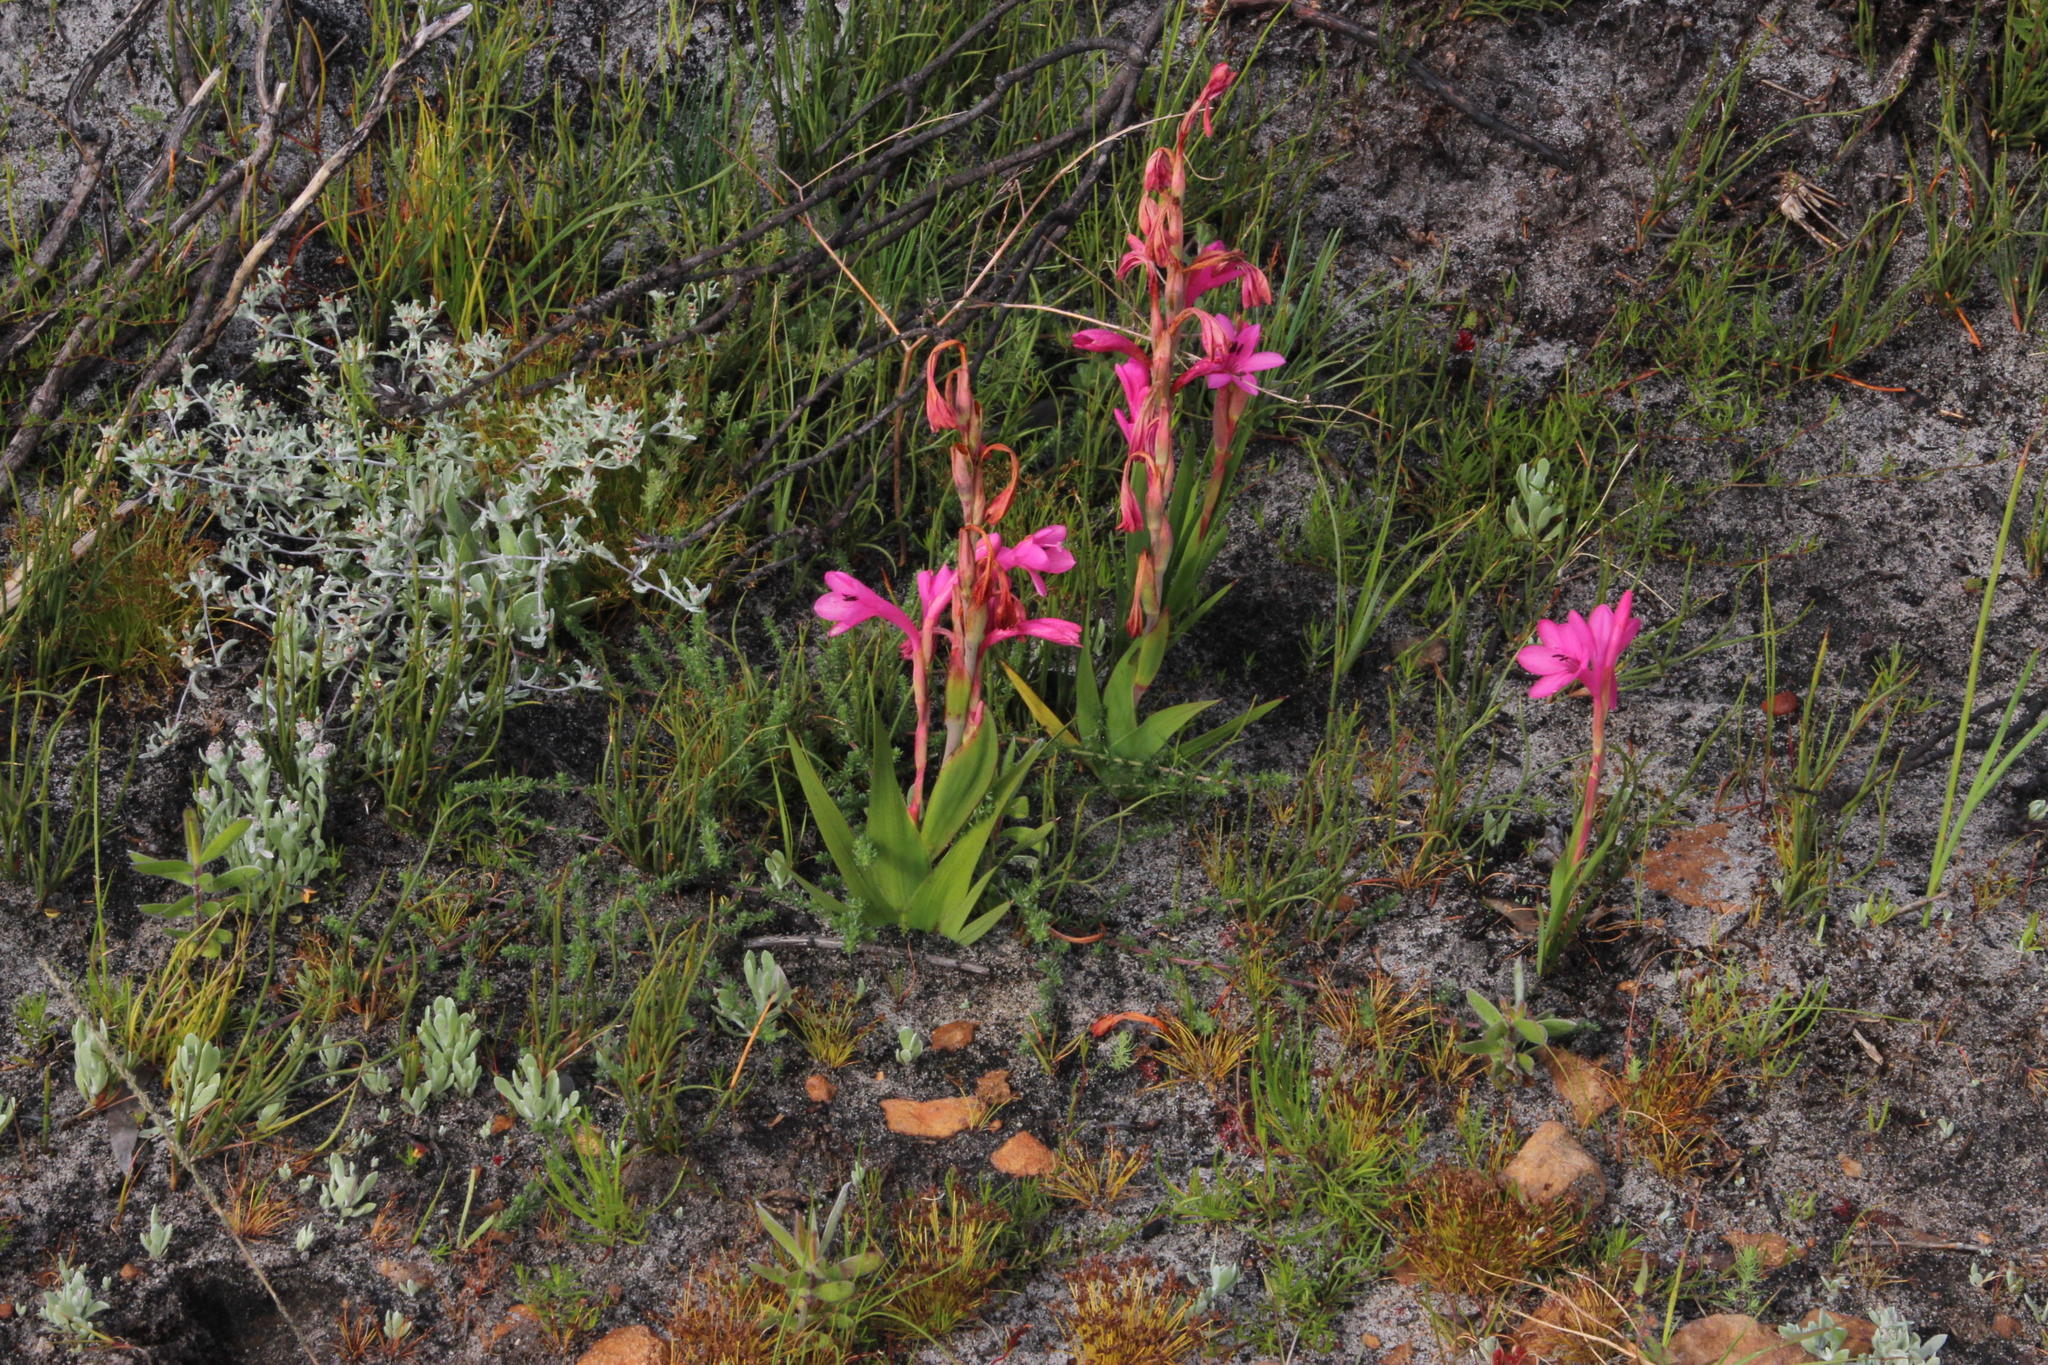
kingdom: Plantae
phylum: Tracheophyta
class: Liliopsida
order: Asparagales
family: Iridaceae
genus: Watsonia
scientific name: Watsonia coccinea
